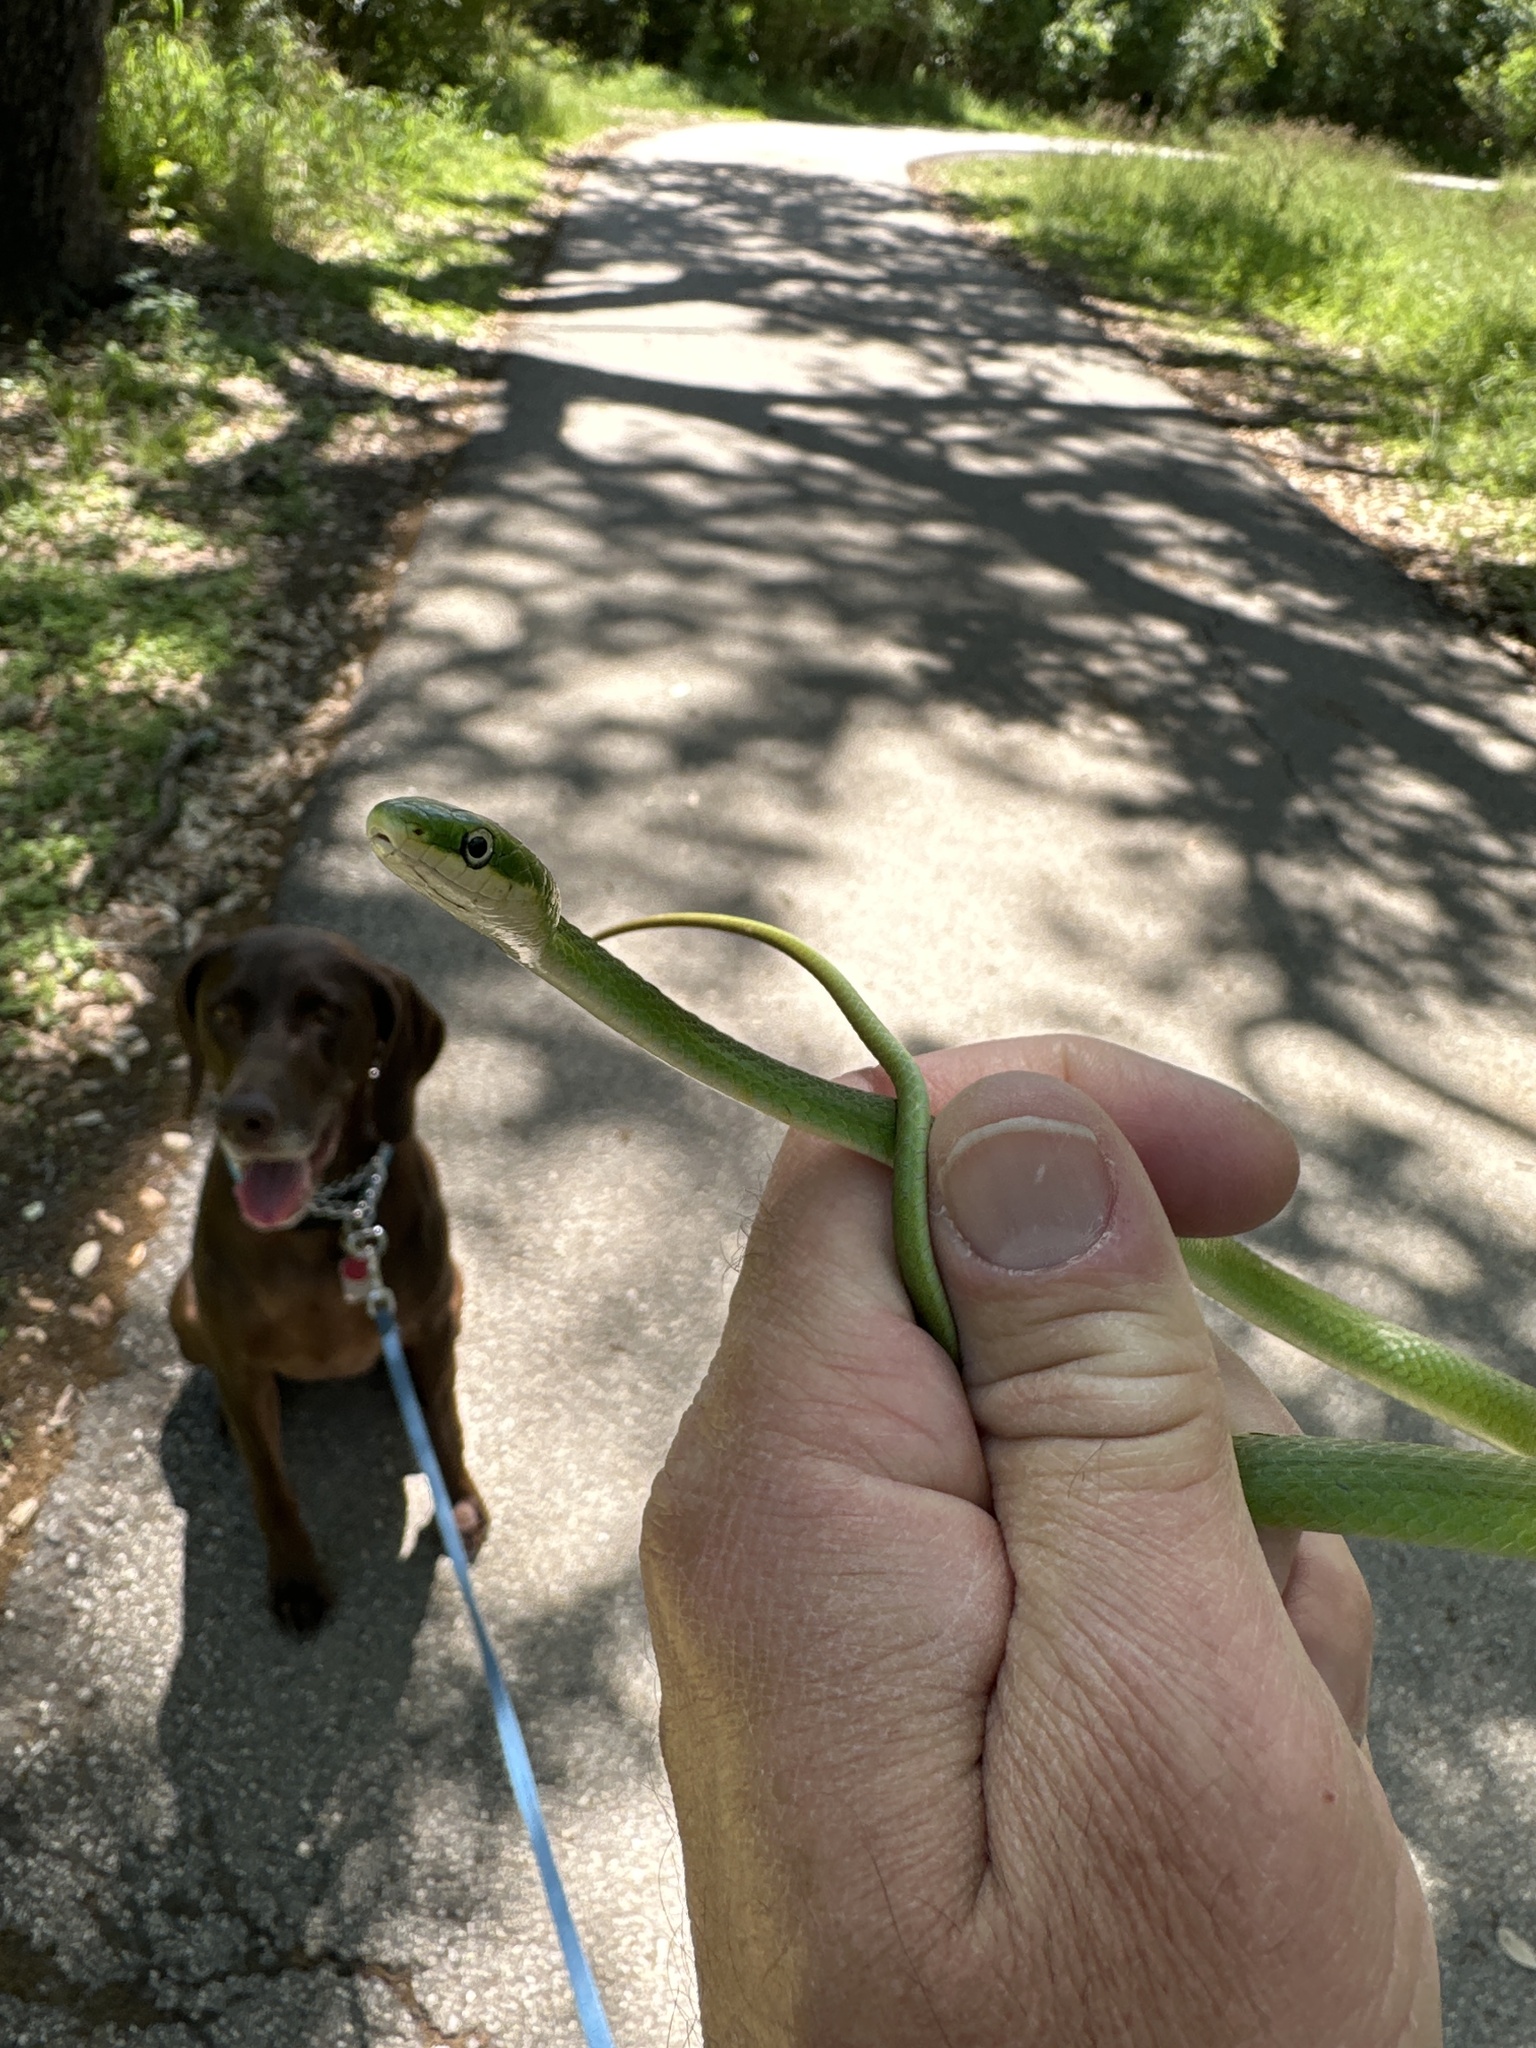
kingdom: Animalia
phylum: Chordata
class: Squamata
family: Colubridae
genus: Opheodrys
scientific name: Opheodrys aestivus
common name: Rough greensnake
